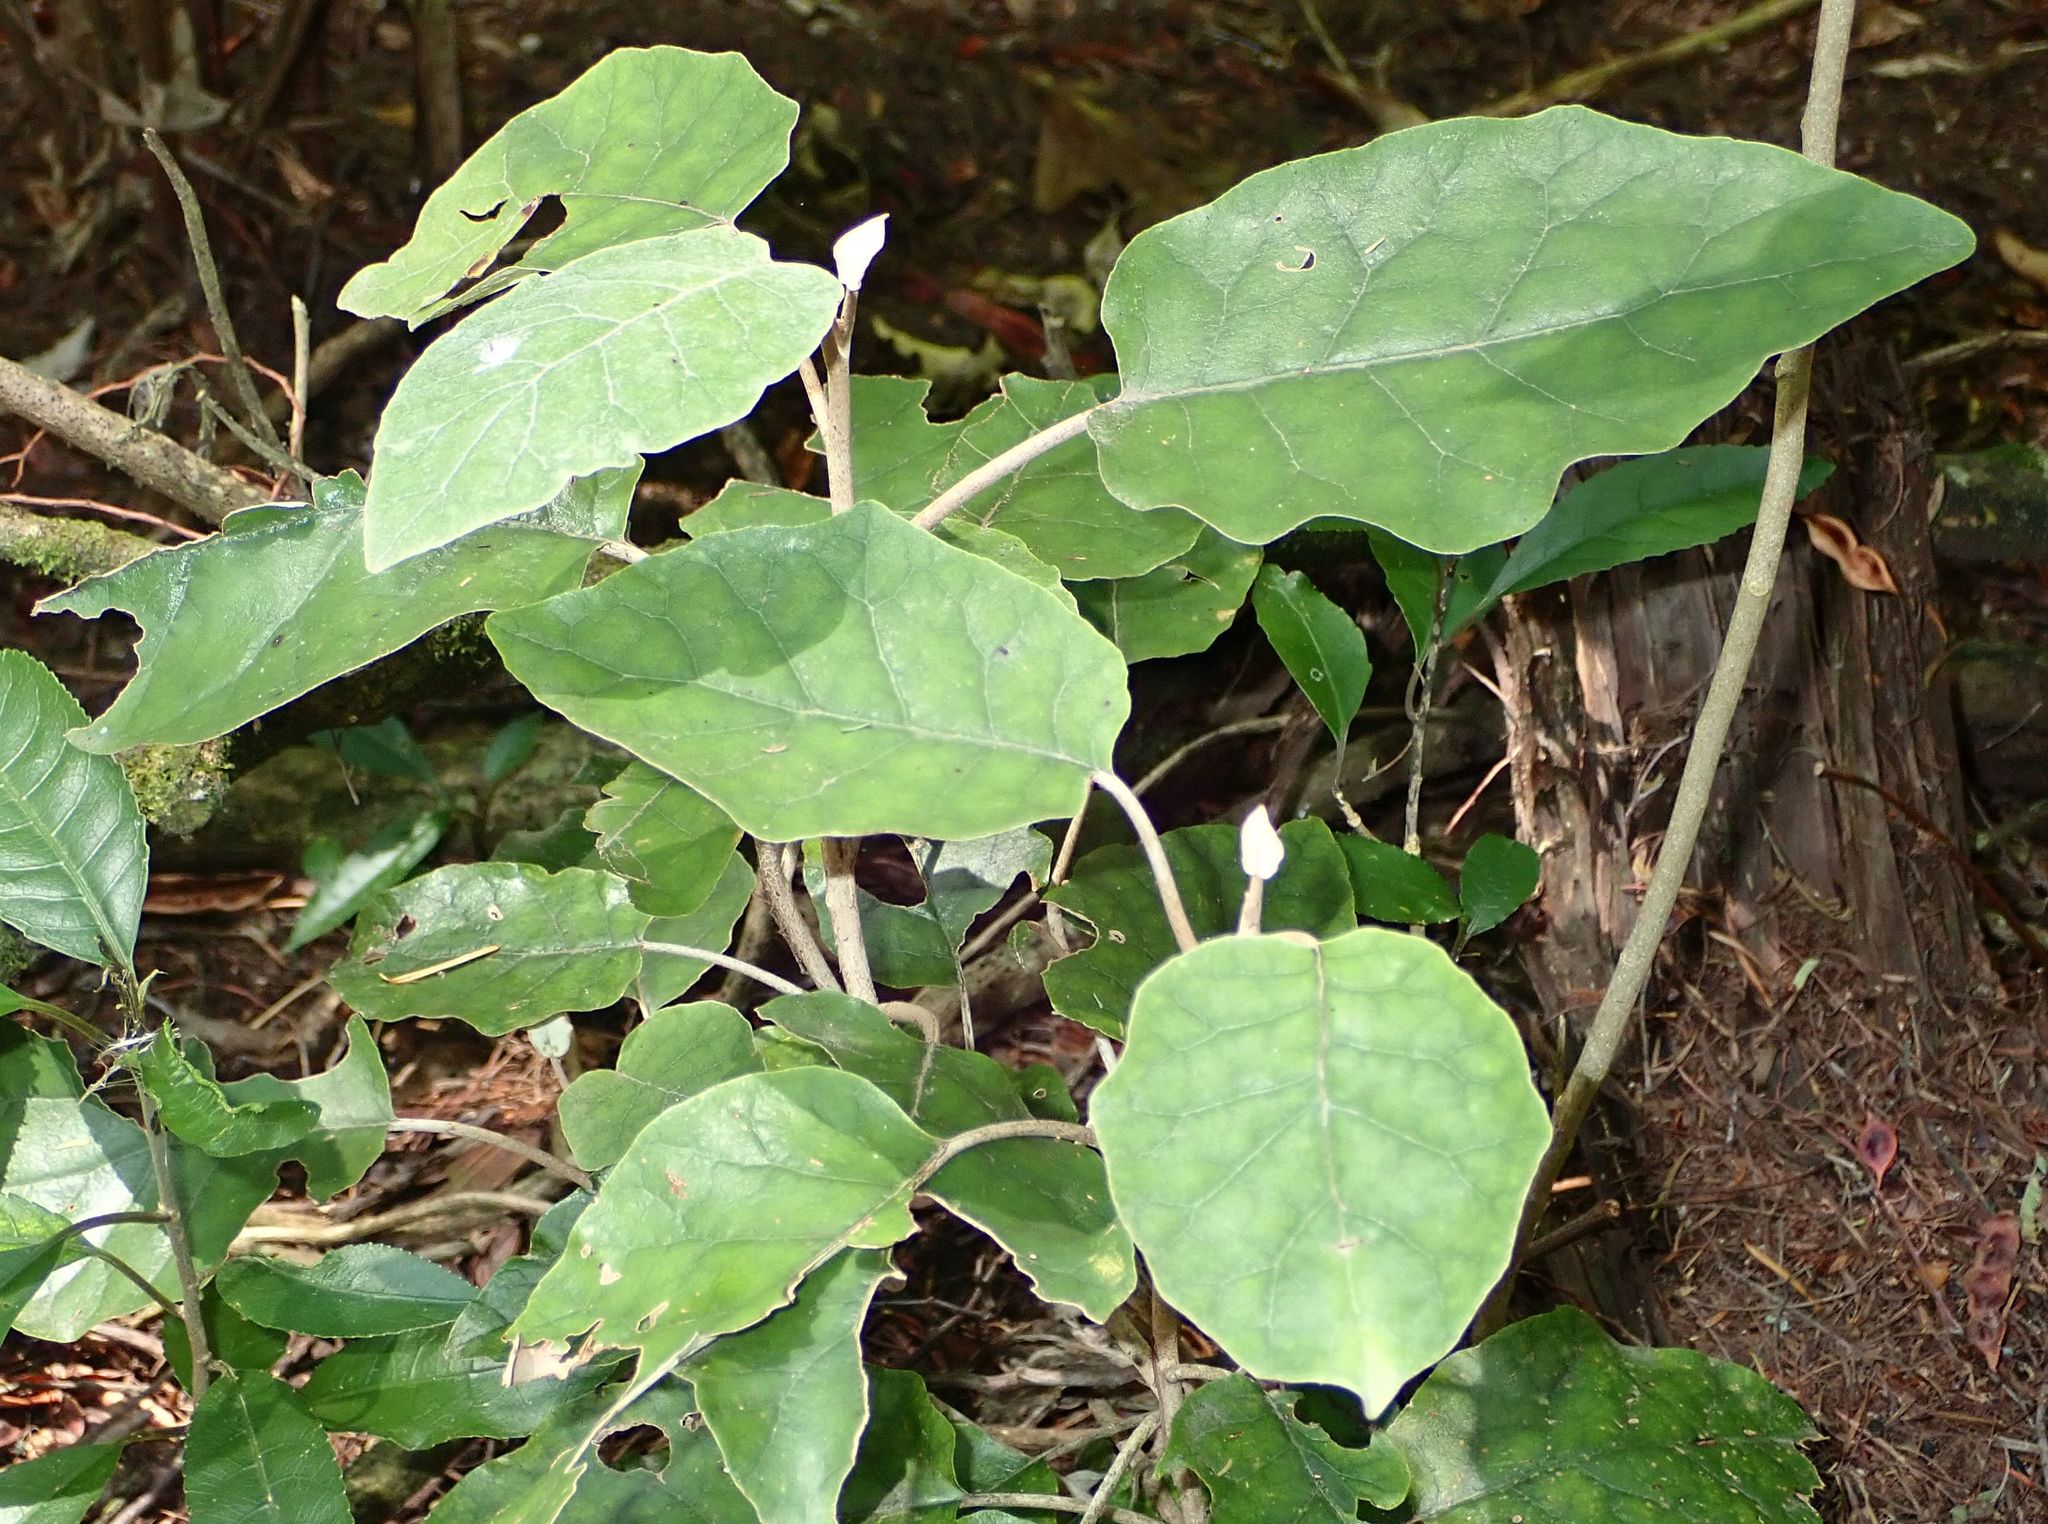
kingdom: Plantae
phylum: Tracheophyta
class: Magnoliopsida
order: Asterales
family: Asteraceae
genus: Brachyglottis
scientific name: Brachyglottis repanda
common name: Hedge ragwort
